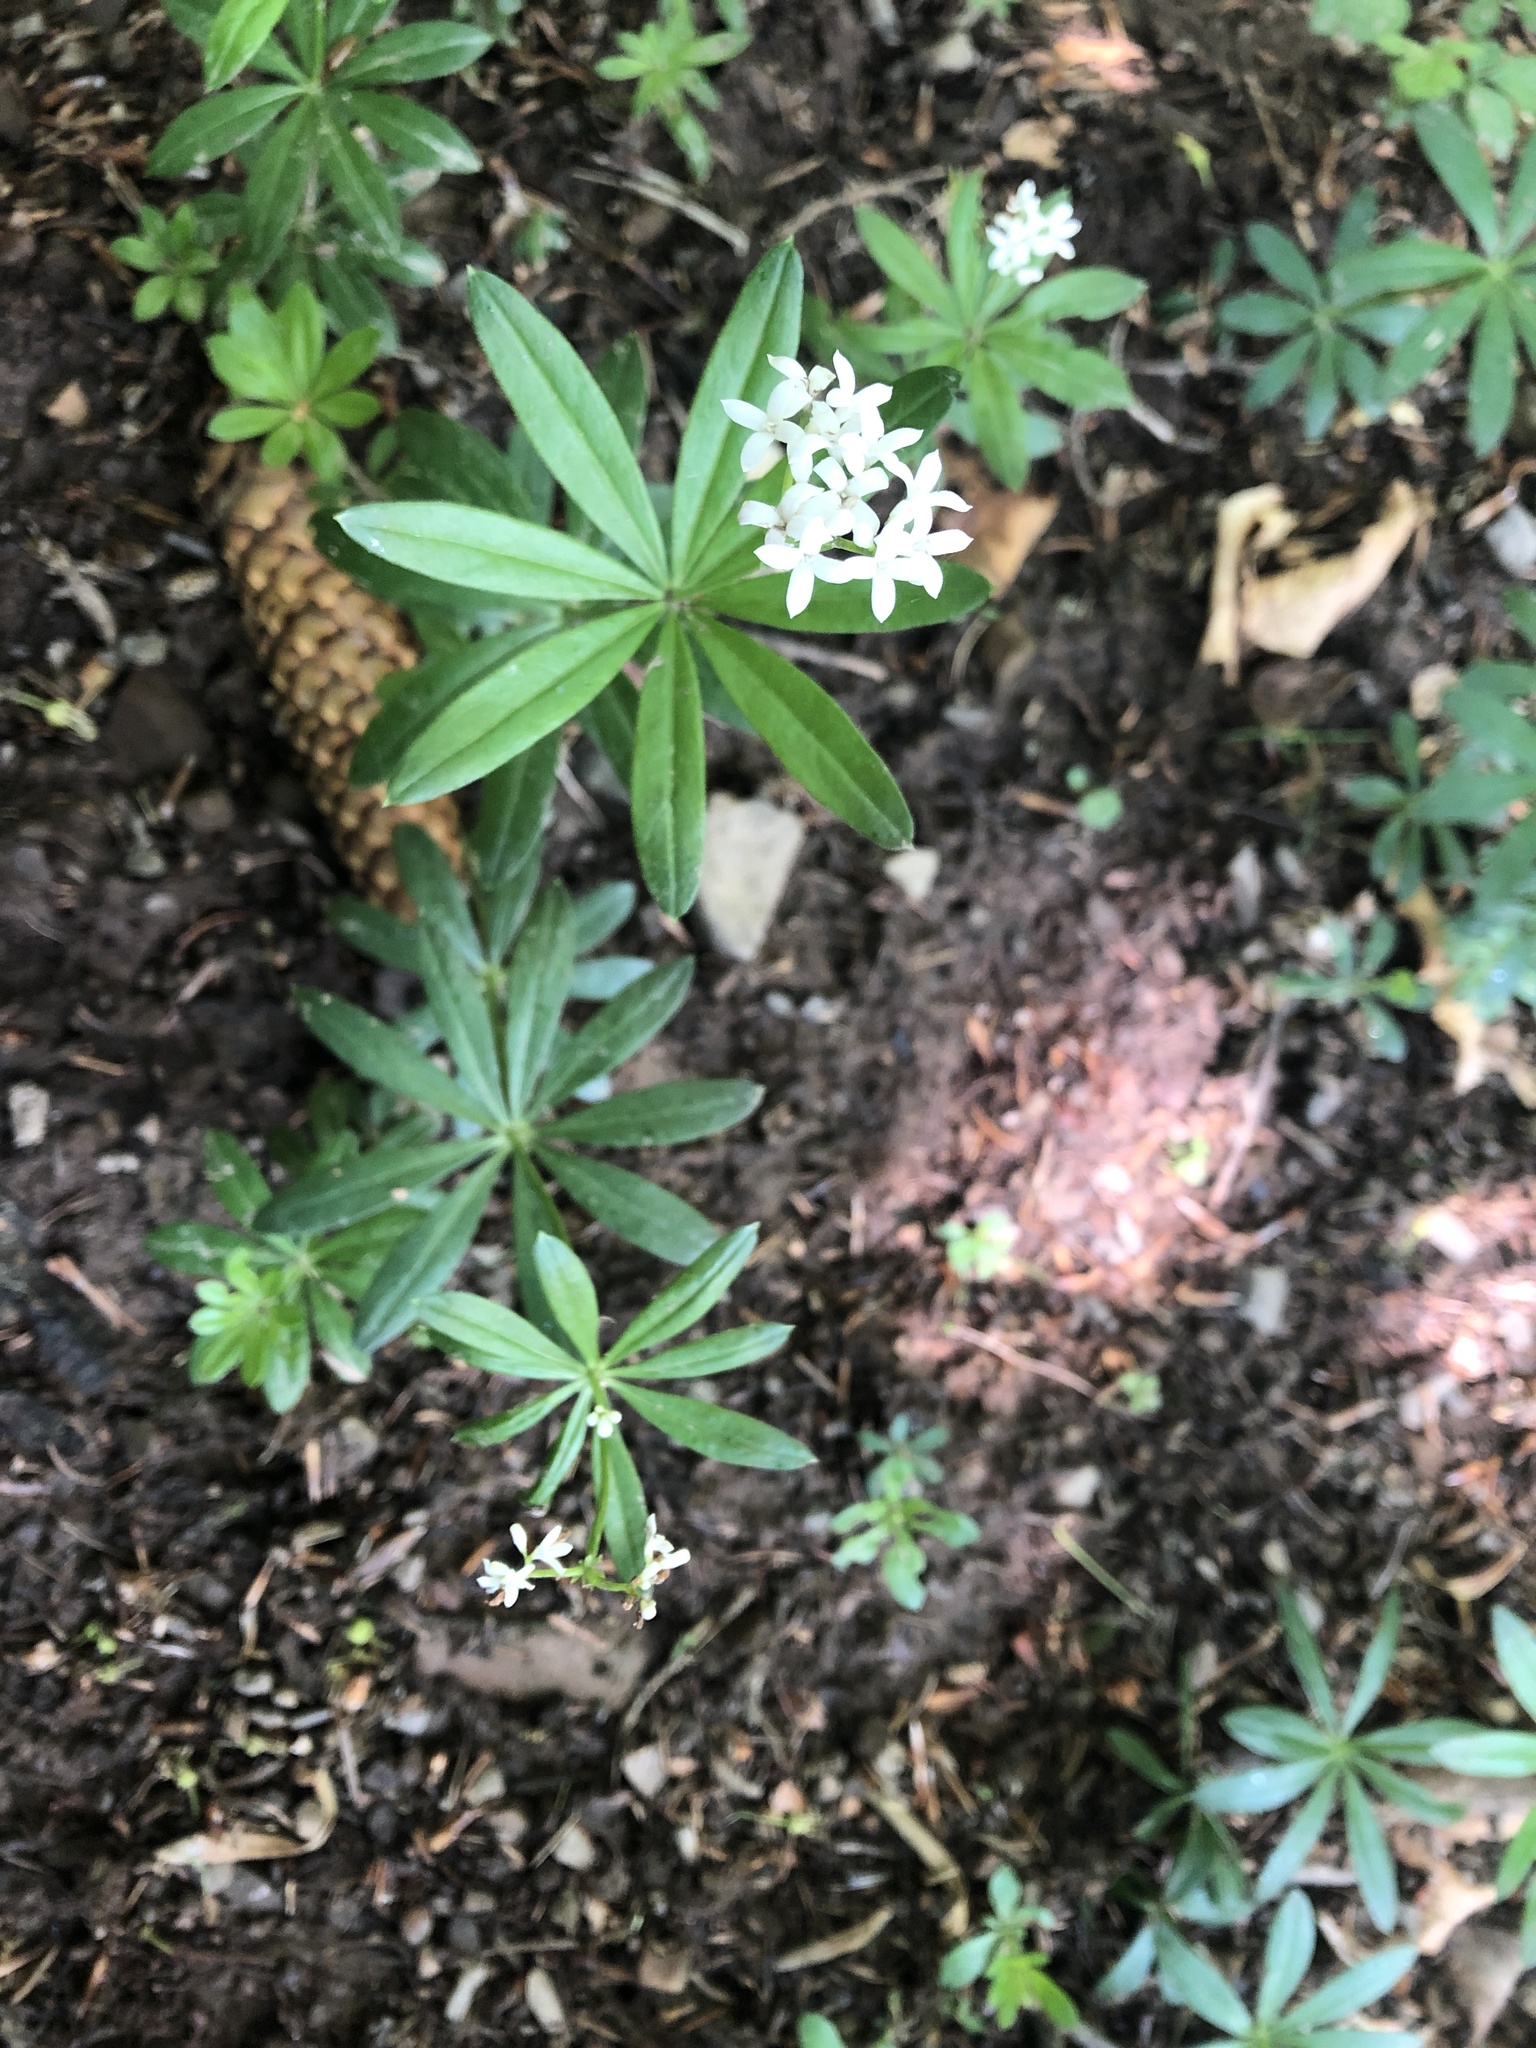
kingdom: Plantae
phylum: Tracheophyta
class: Magnoliopsida
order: Gentianales
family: Rubiaceae
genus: Galium
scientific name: Galium odoratum
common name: Sweet woodruff
